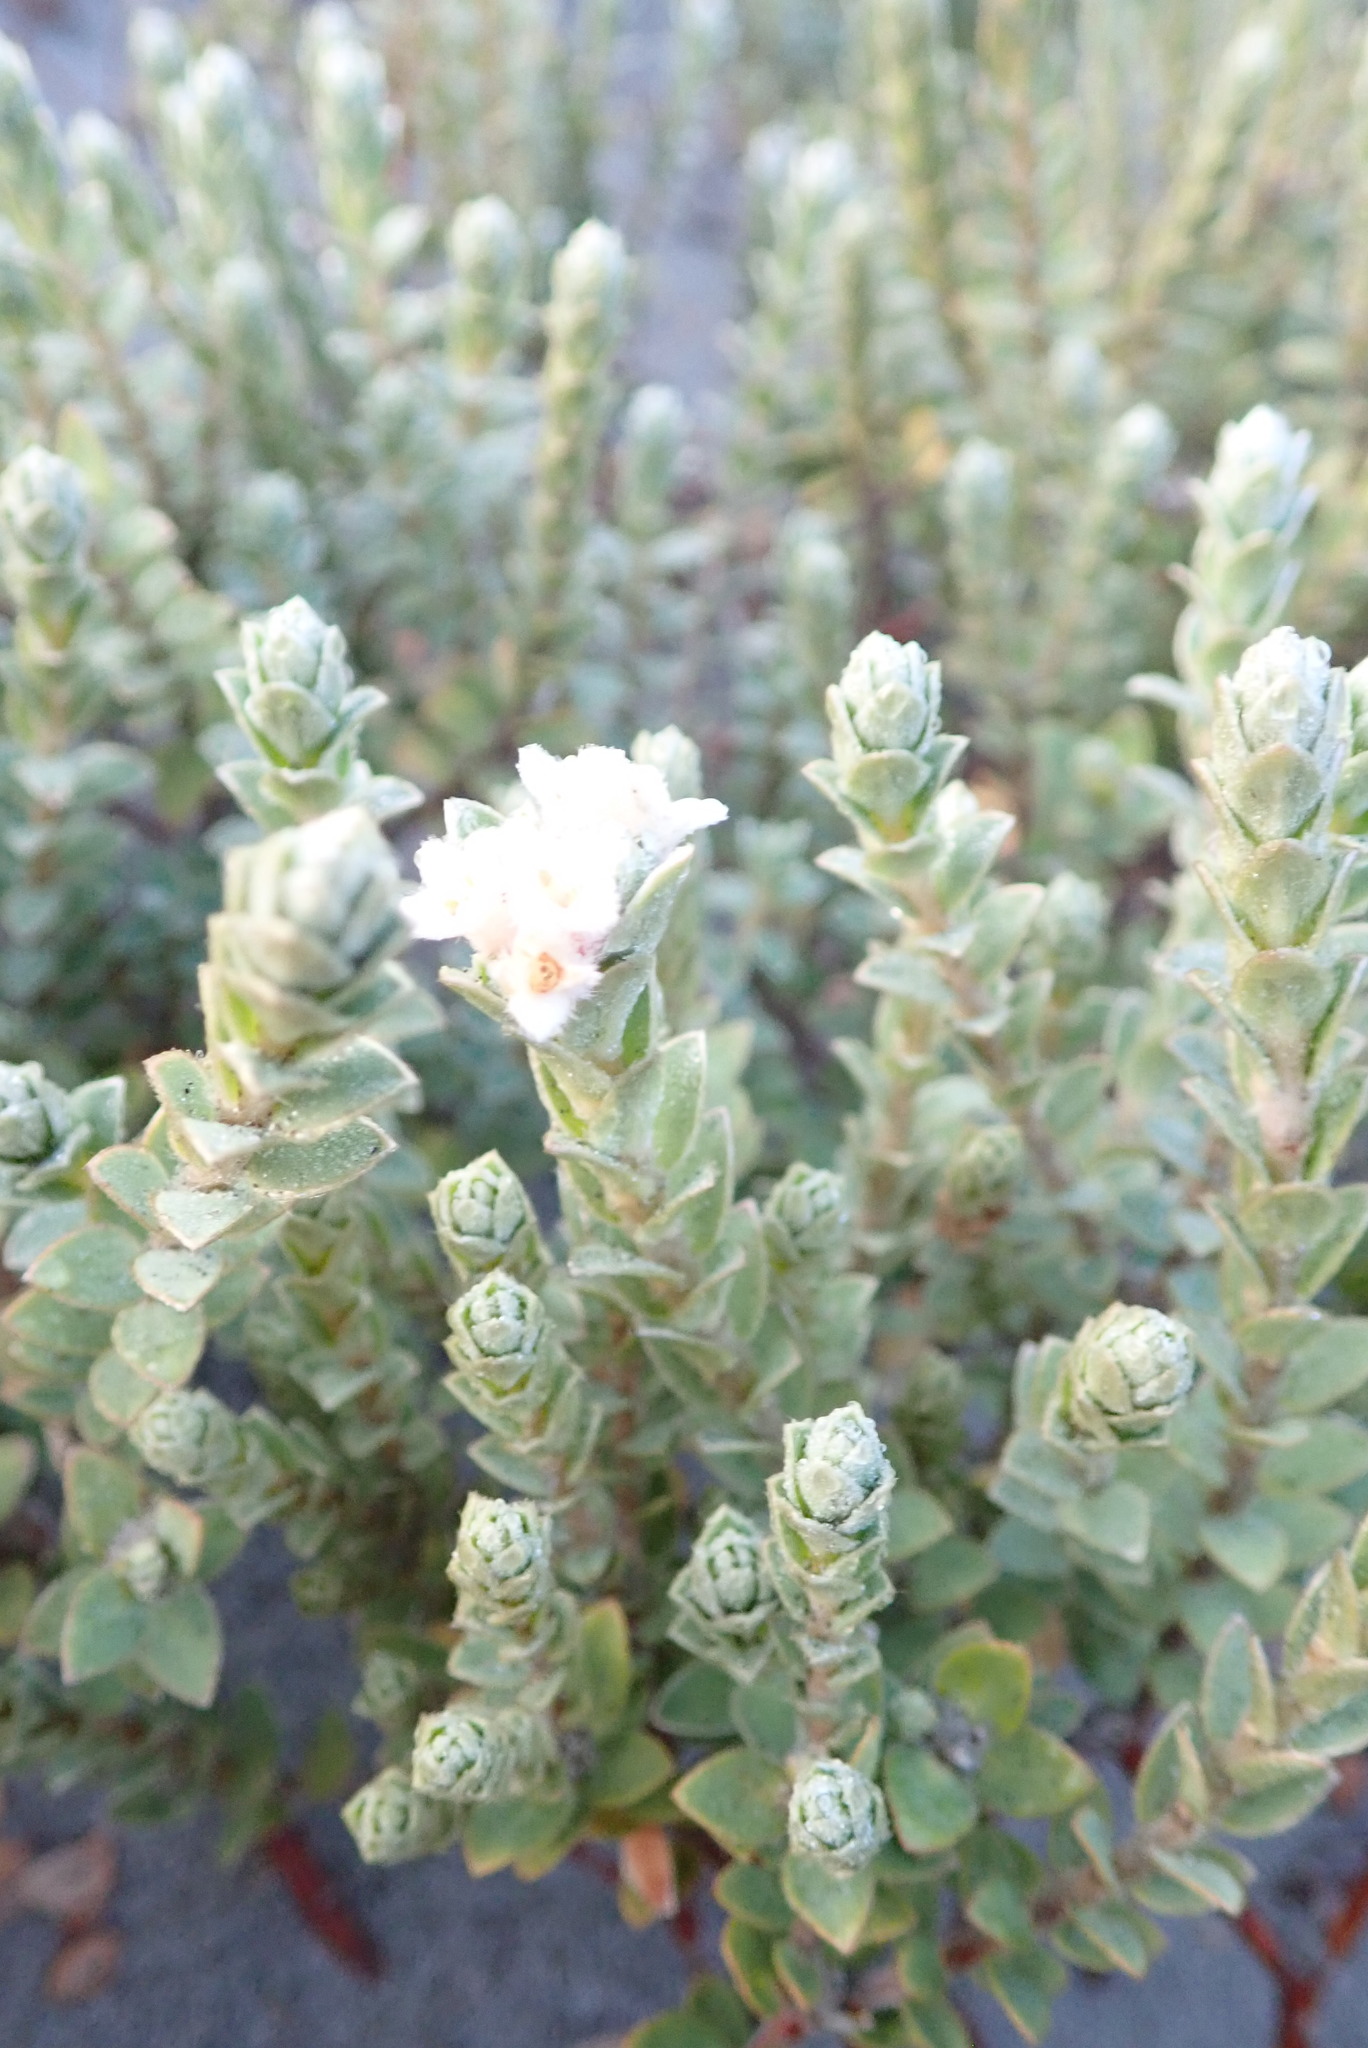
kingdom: Plantae
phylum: Tracheophyta
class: Magnoliopsida
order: Malvales
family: Thymelaeaceae
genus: Pimelea
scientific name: Pimelea villosa
